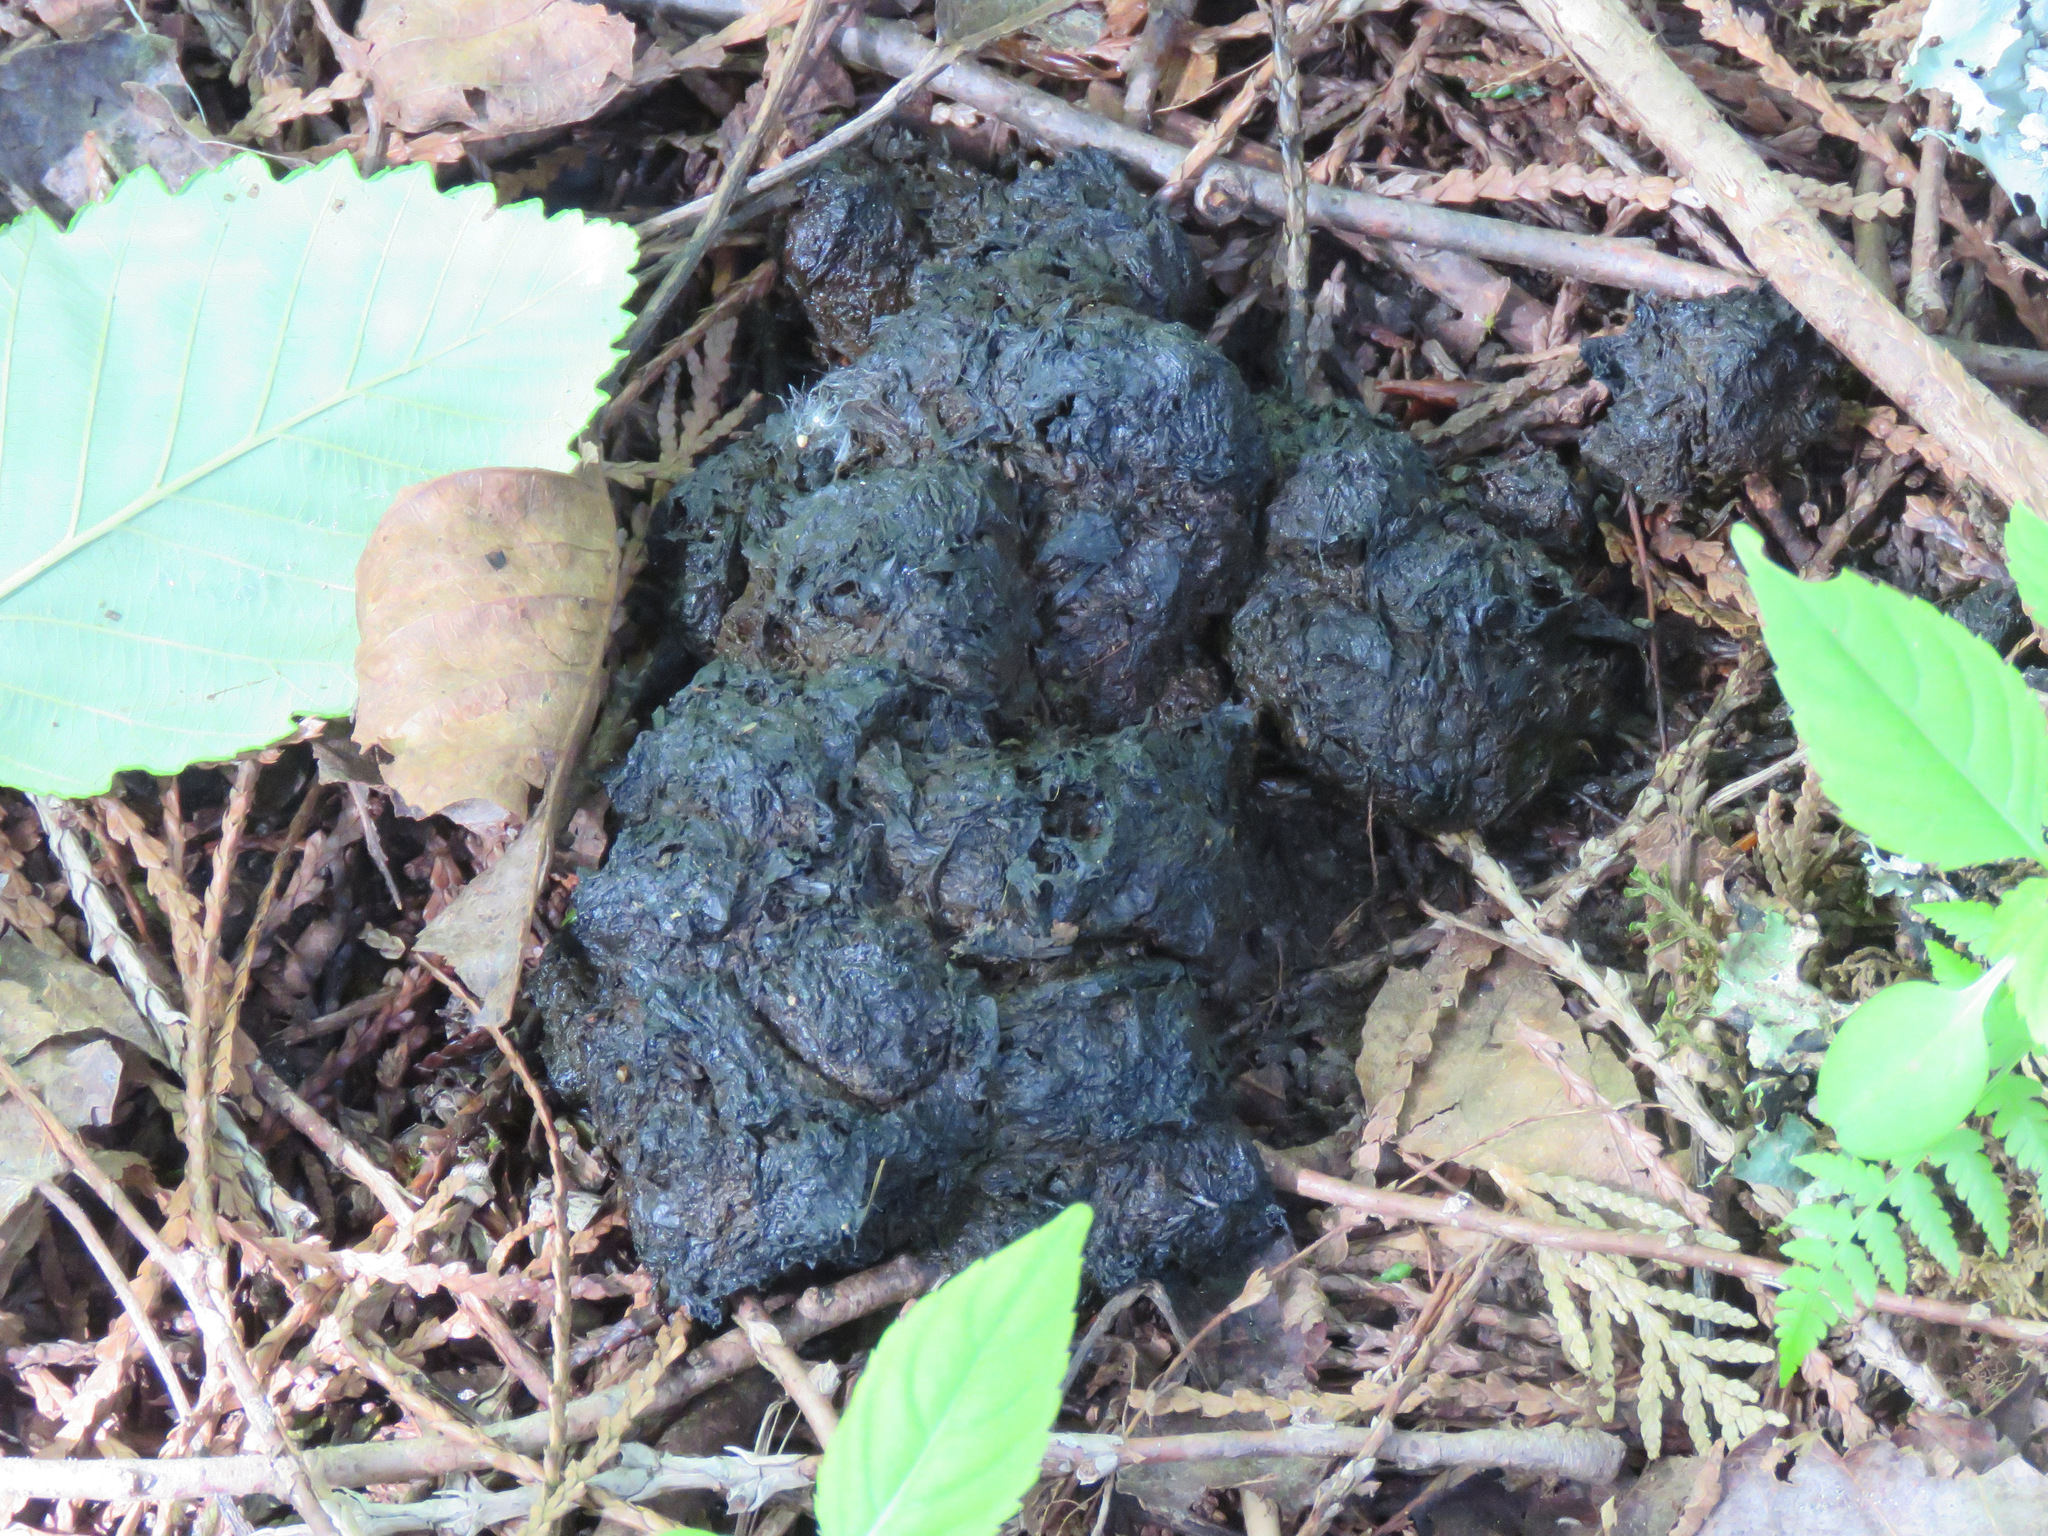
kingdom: Animalia
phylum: Chordata
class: Mammalia
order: Carnivora
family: Ursidae
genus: Ursus
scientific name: Ursus americanus
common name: American black bear
